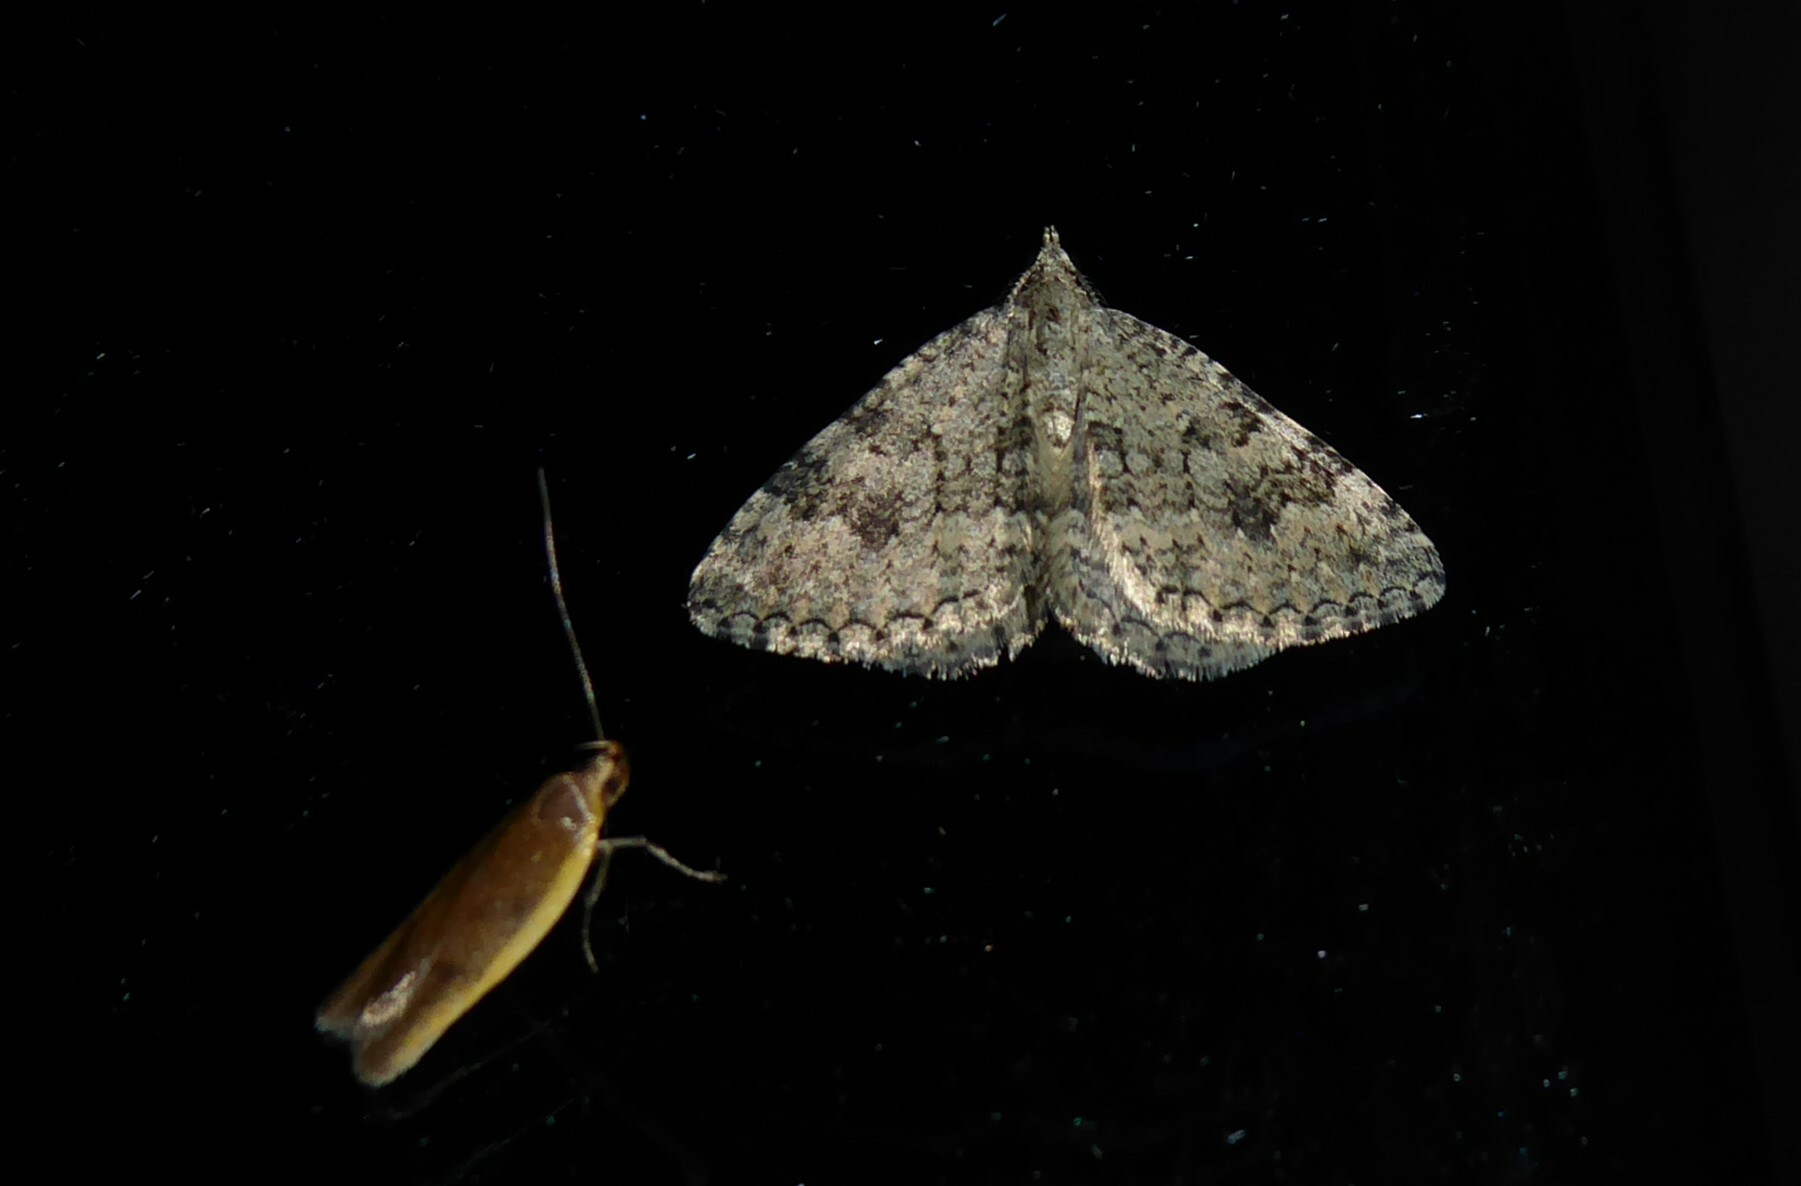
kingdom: Animalia
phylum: Arthropoda
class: Insecta
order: Lepidoptera
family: Geometridae
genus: Helastia
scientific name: Helastia corcularia
